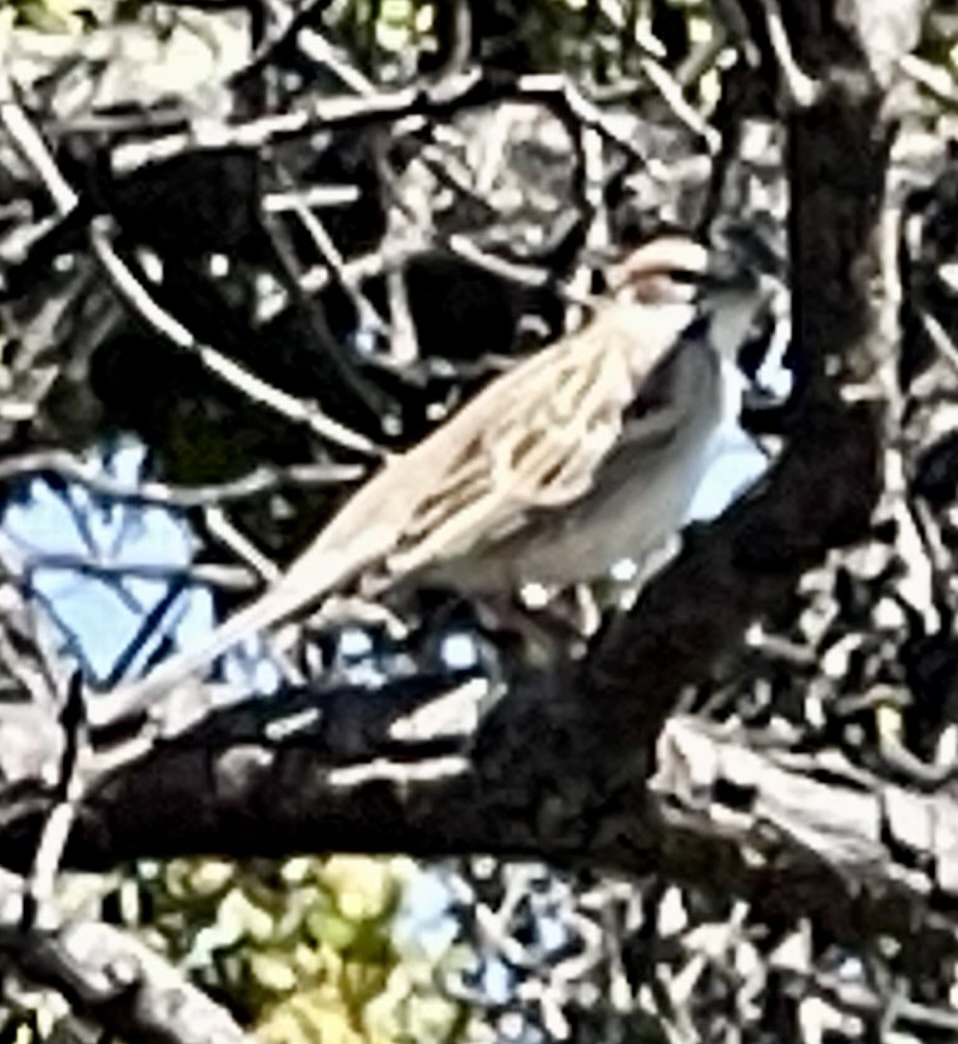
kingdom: Animalia
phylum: Chordata
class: Aves
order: Passeriformes
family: Passerellidae
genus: Chondestes
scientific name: Chondestes grammacus
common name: Lark sparrow
